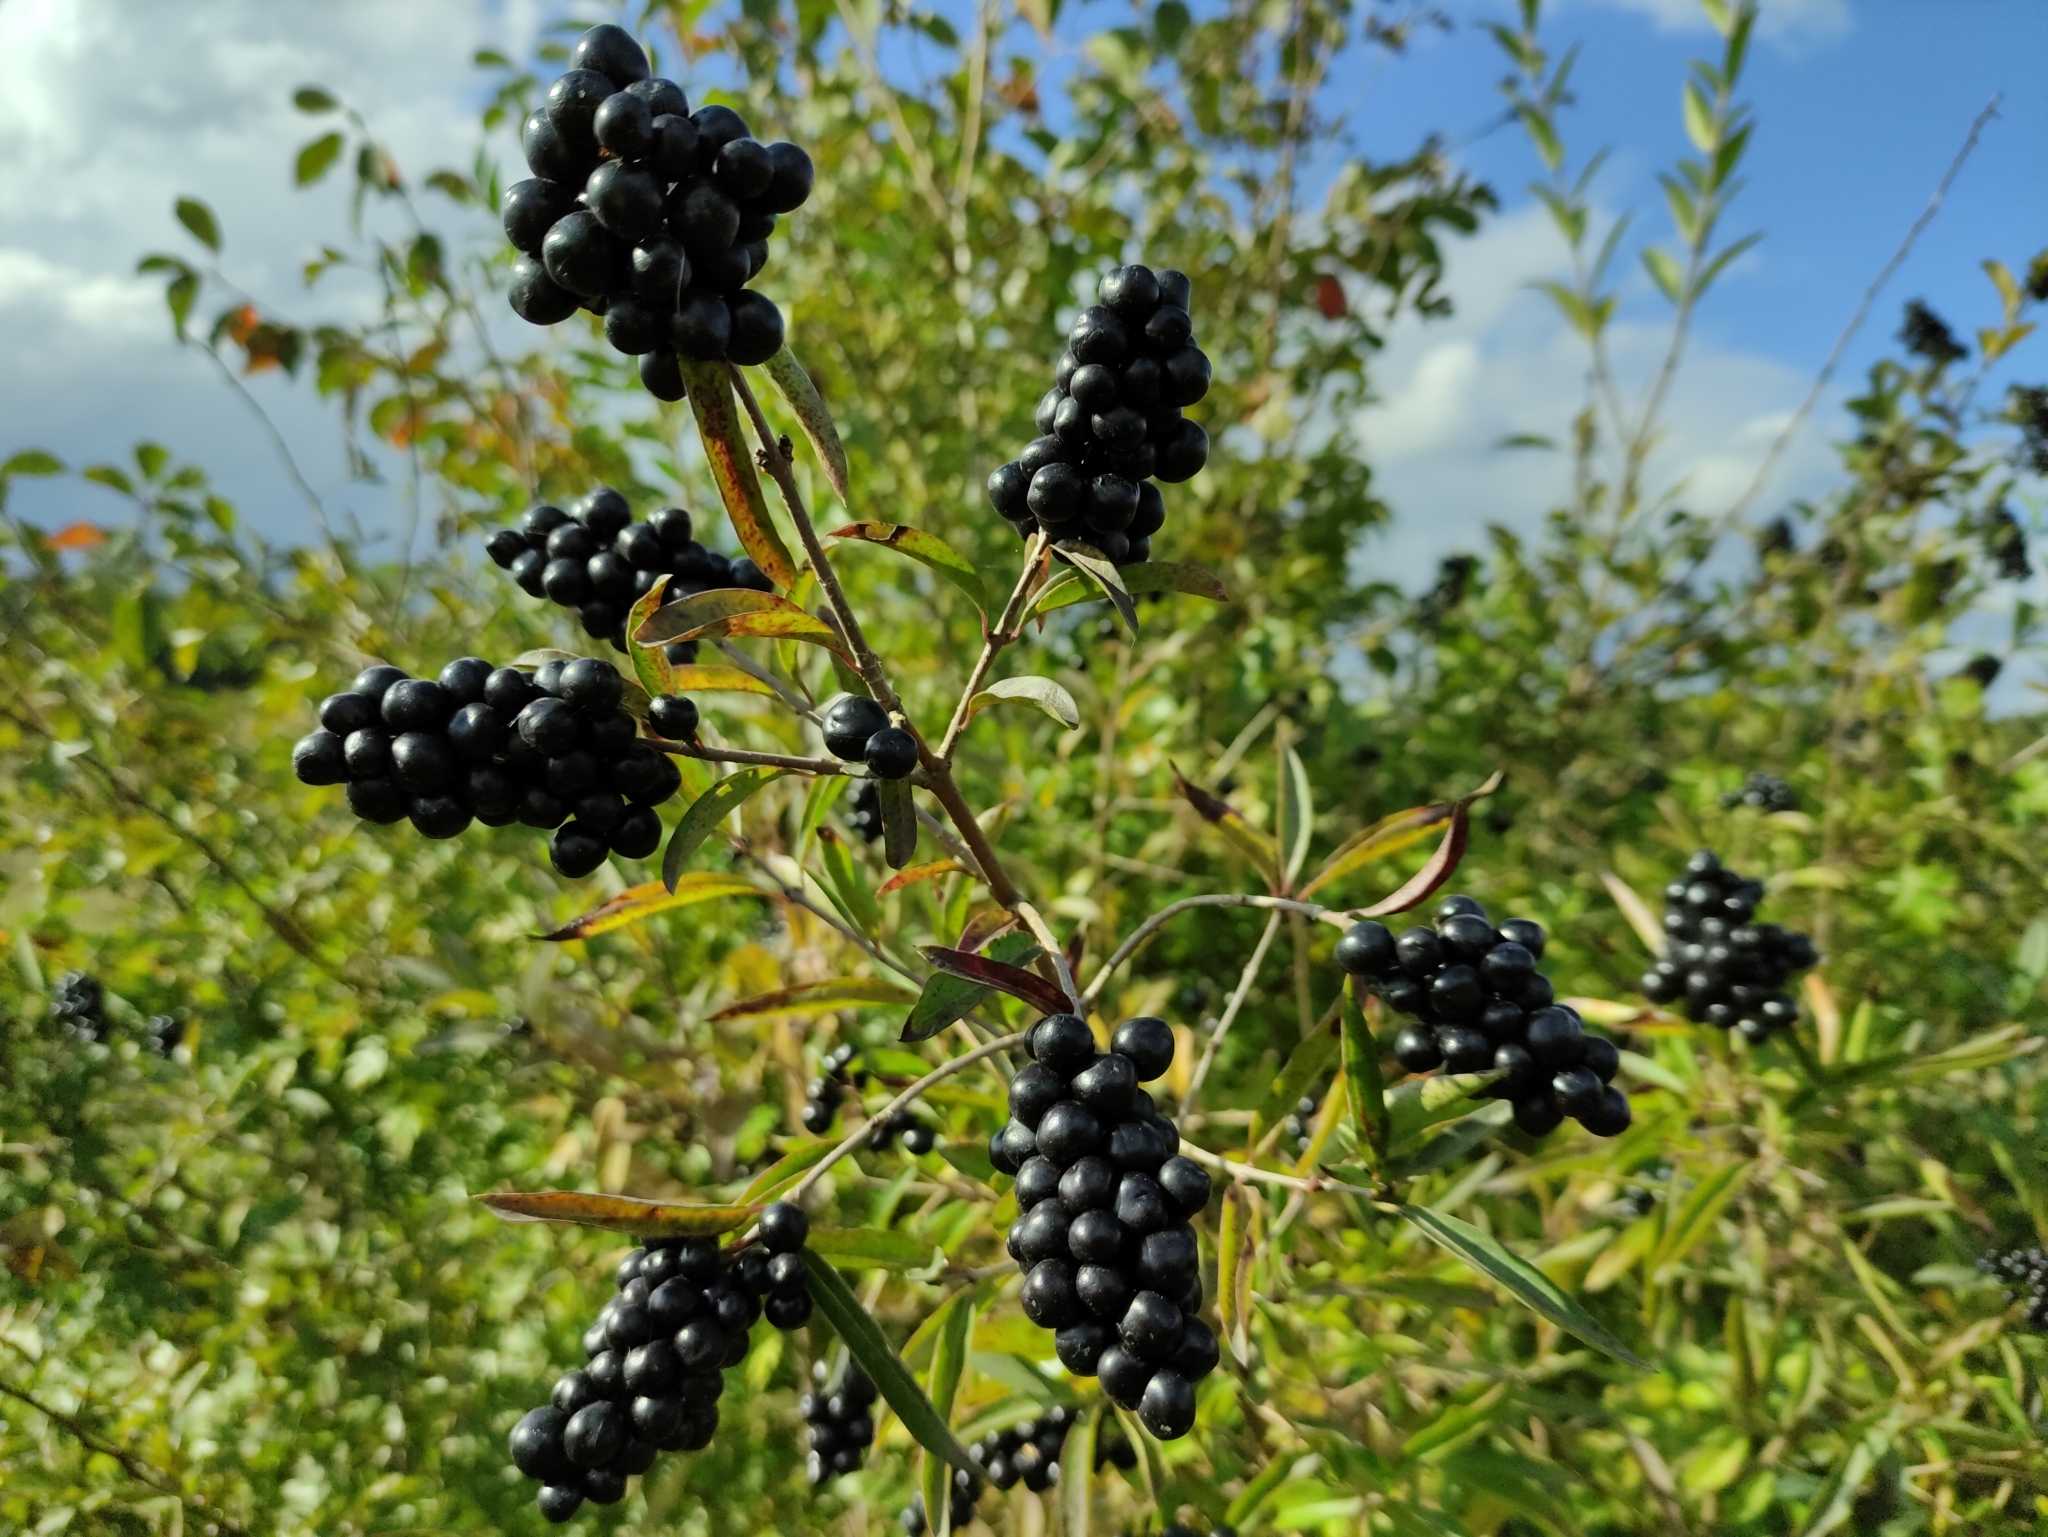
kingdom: Plantae
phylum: Tracheophyta
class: Magnoliopsida
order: Lamiales
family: Oleaceae
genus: Ligustrum
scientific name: Ligustrum vulgare
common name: Wild privet
